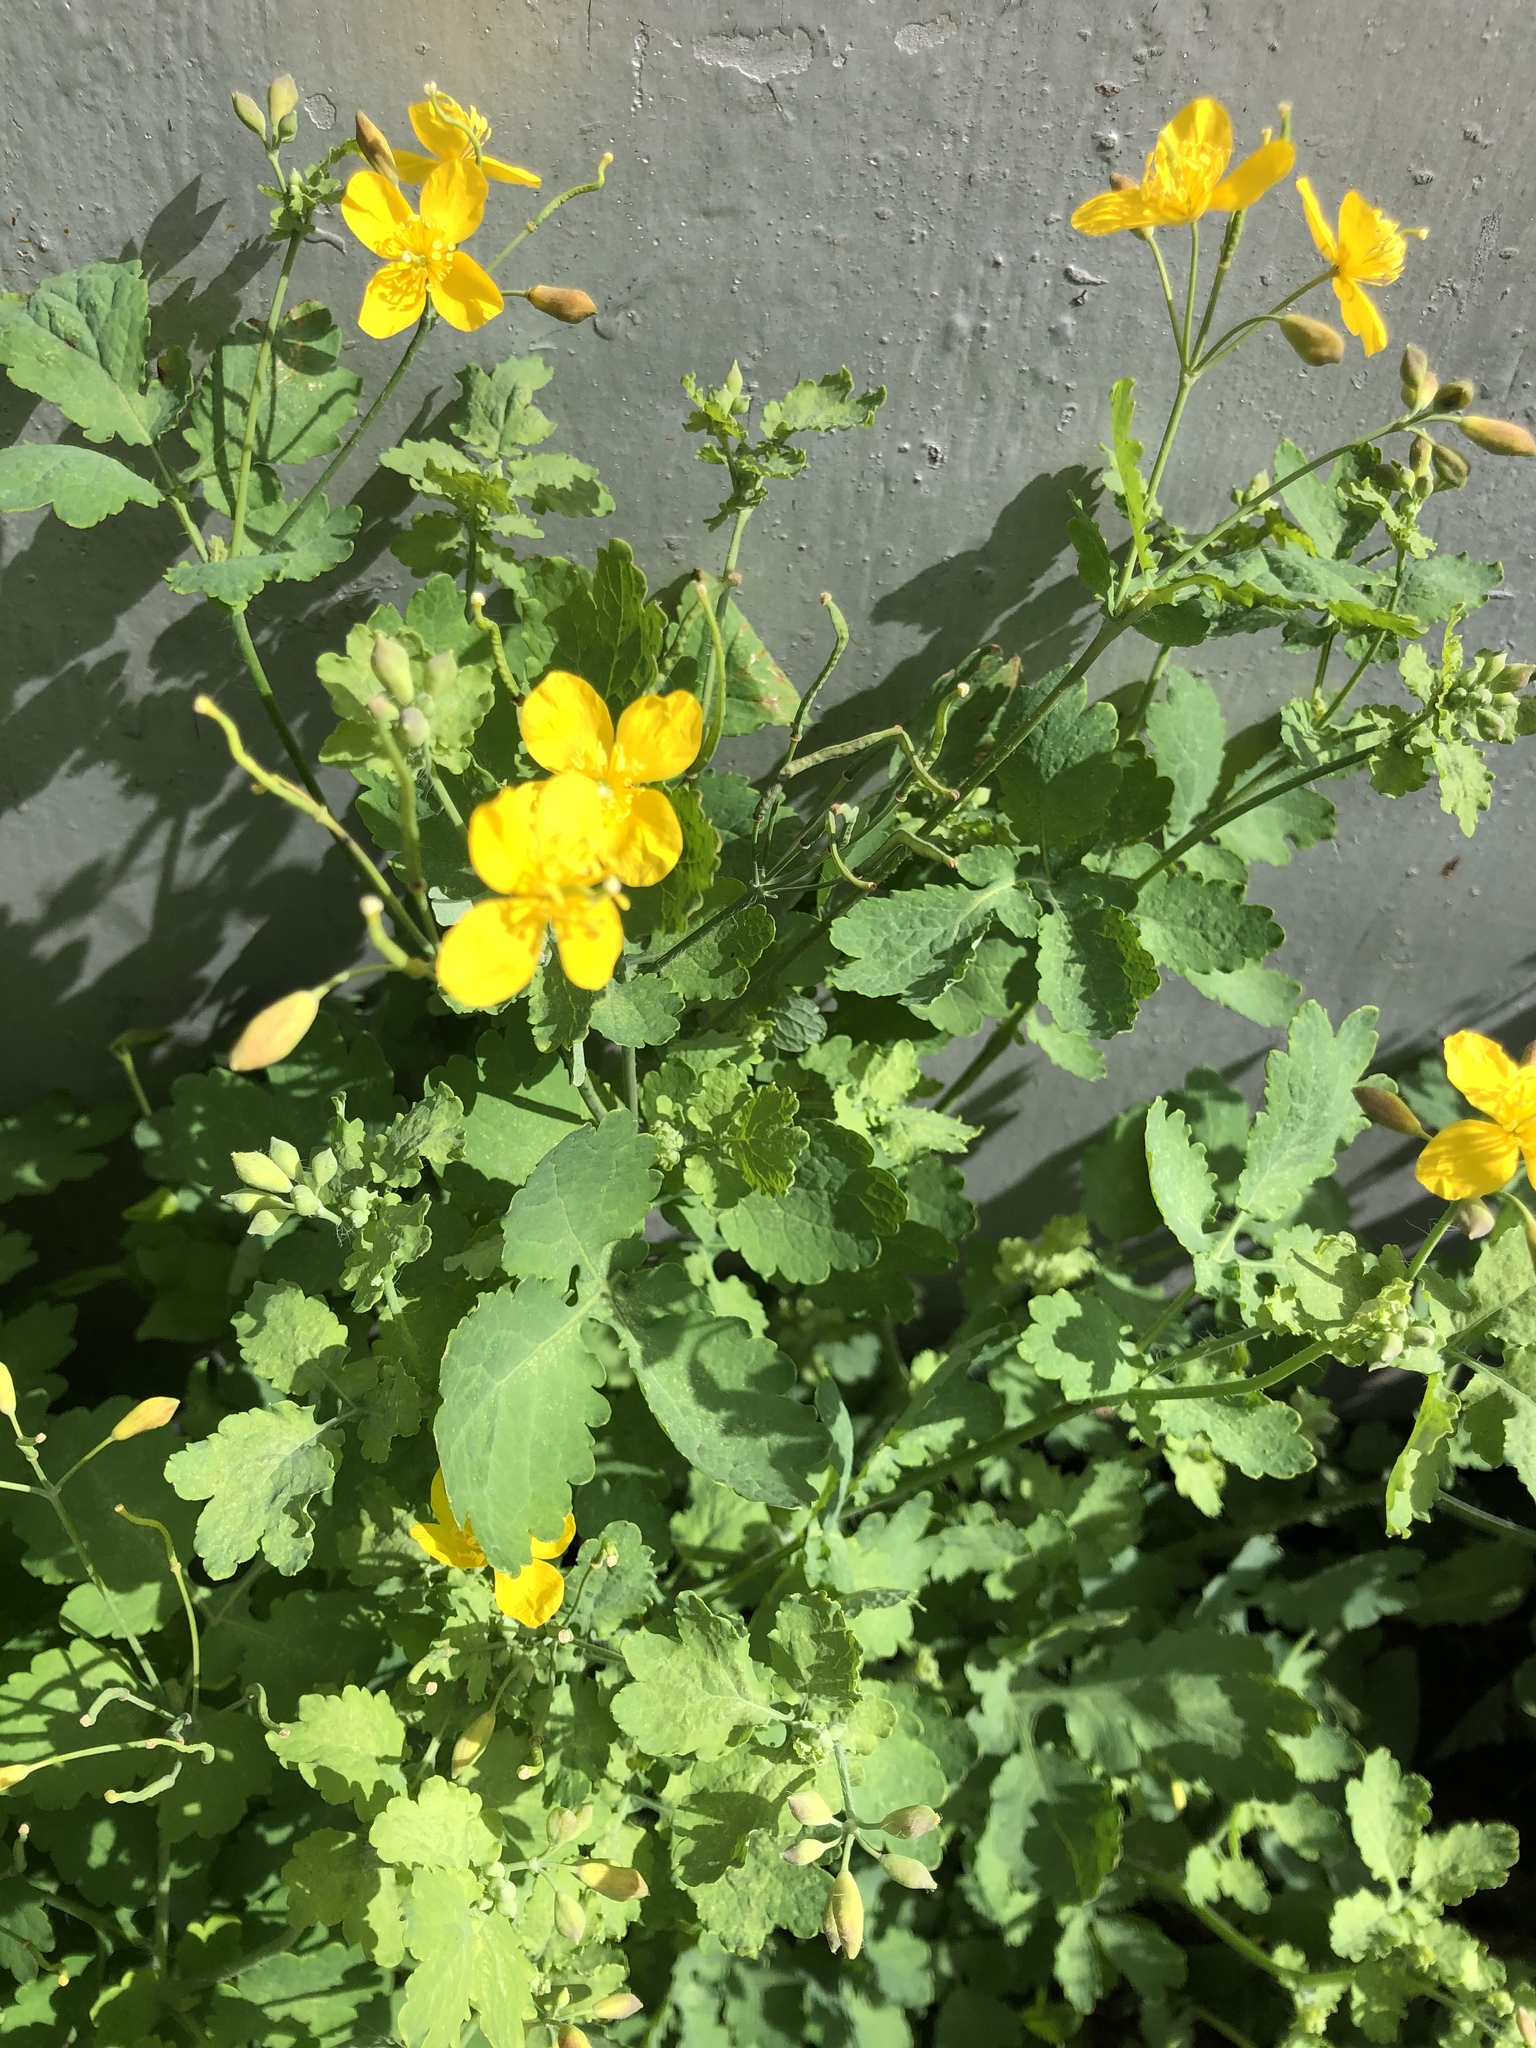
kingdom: Plantae
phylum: Tracheophyta
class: Magnoliopsida
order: Ranunculales
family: Papaveraceae
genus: Chelidonium
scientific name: Chelidonium majus
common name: Greater celandine
